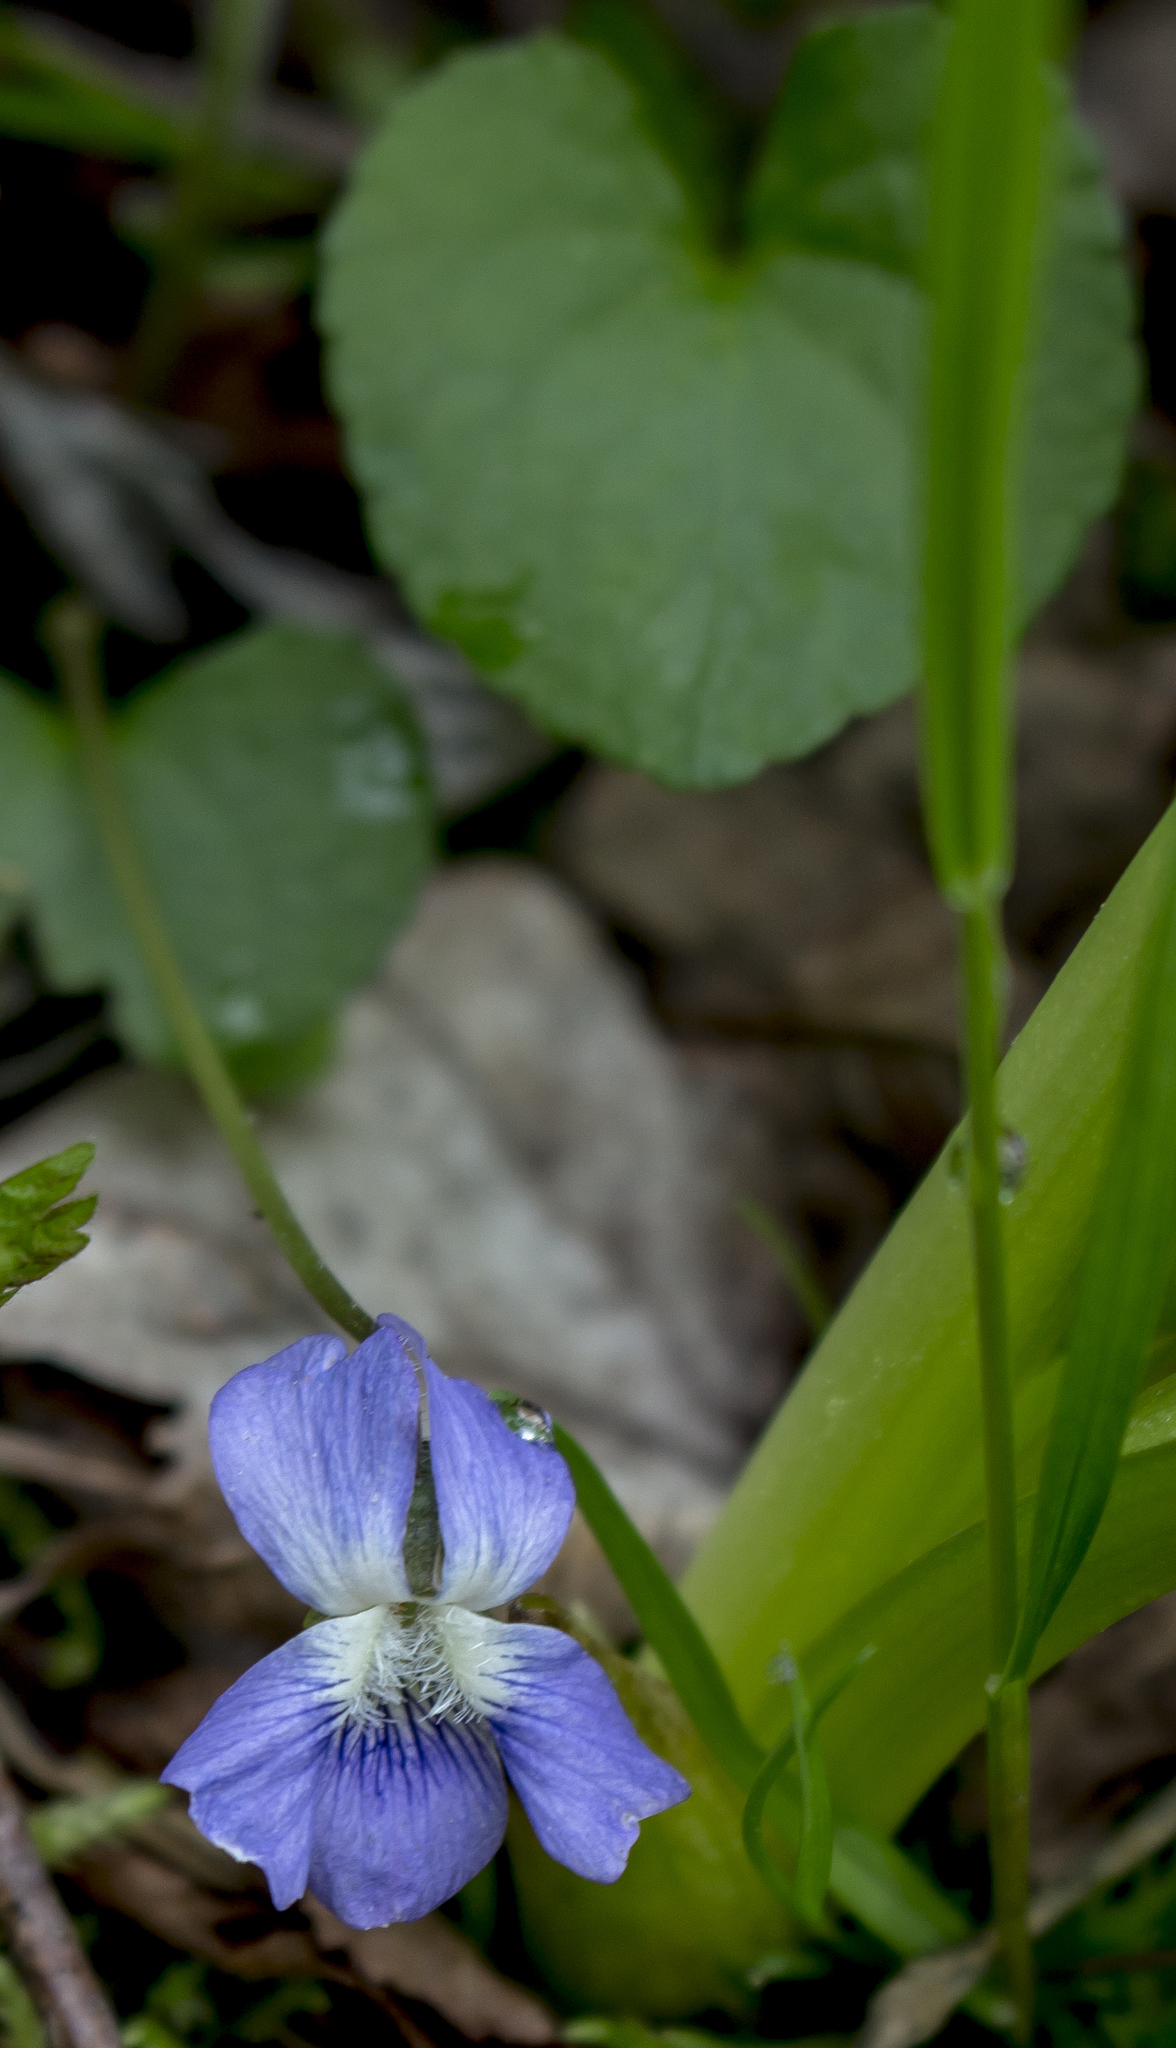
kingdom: Plantae
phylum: Tracheophyta
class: Magnoliopsida
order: Malpighiales
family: Violaceae
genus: Viola
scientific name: Viola sororia
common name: Dooryard violet
